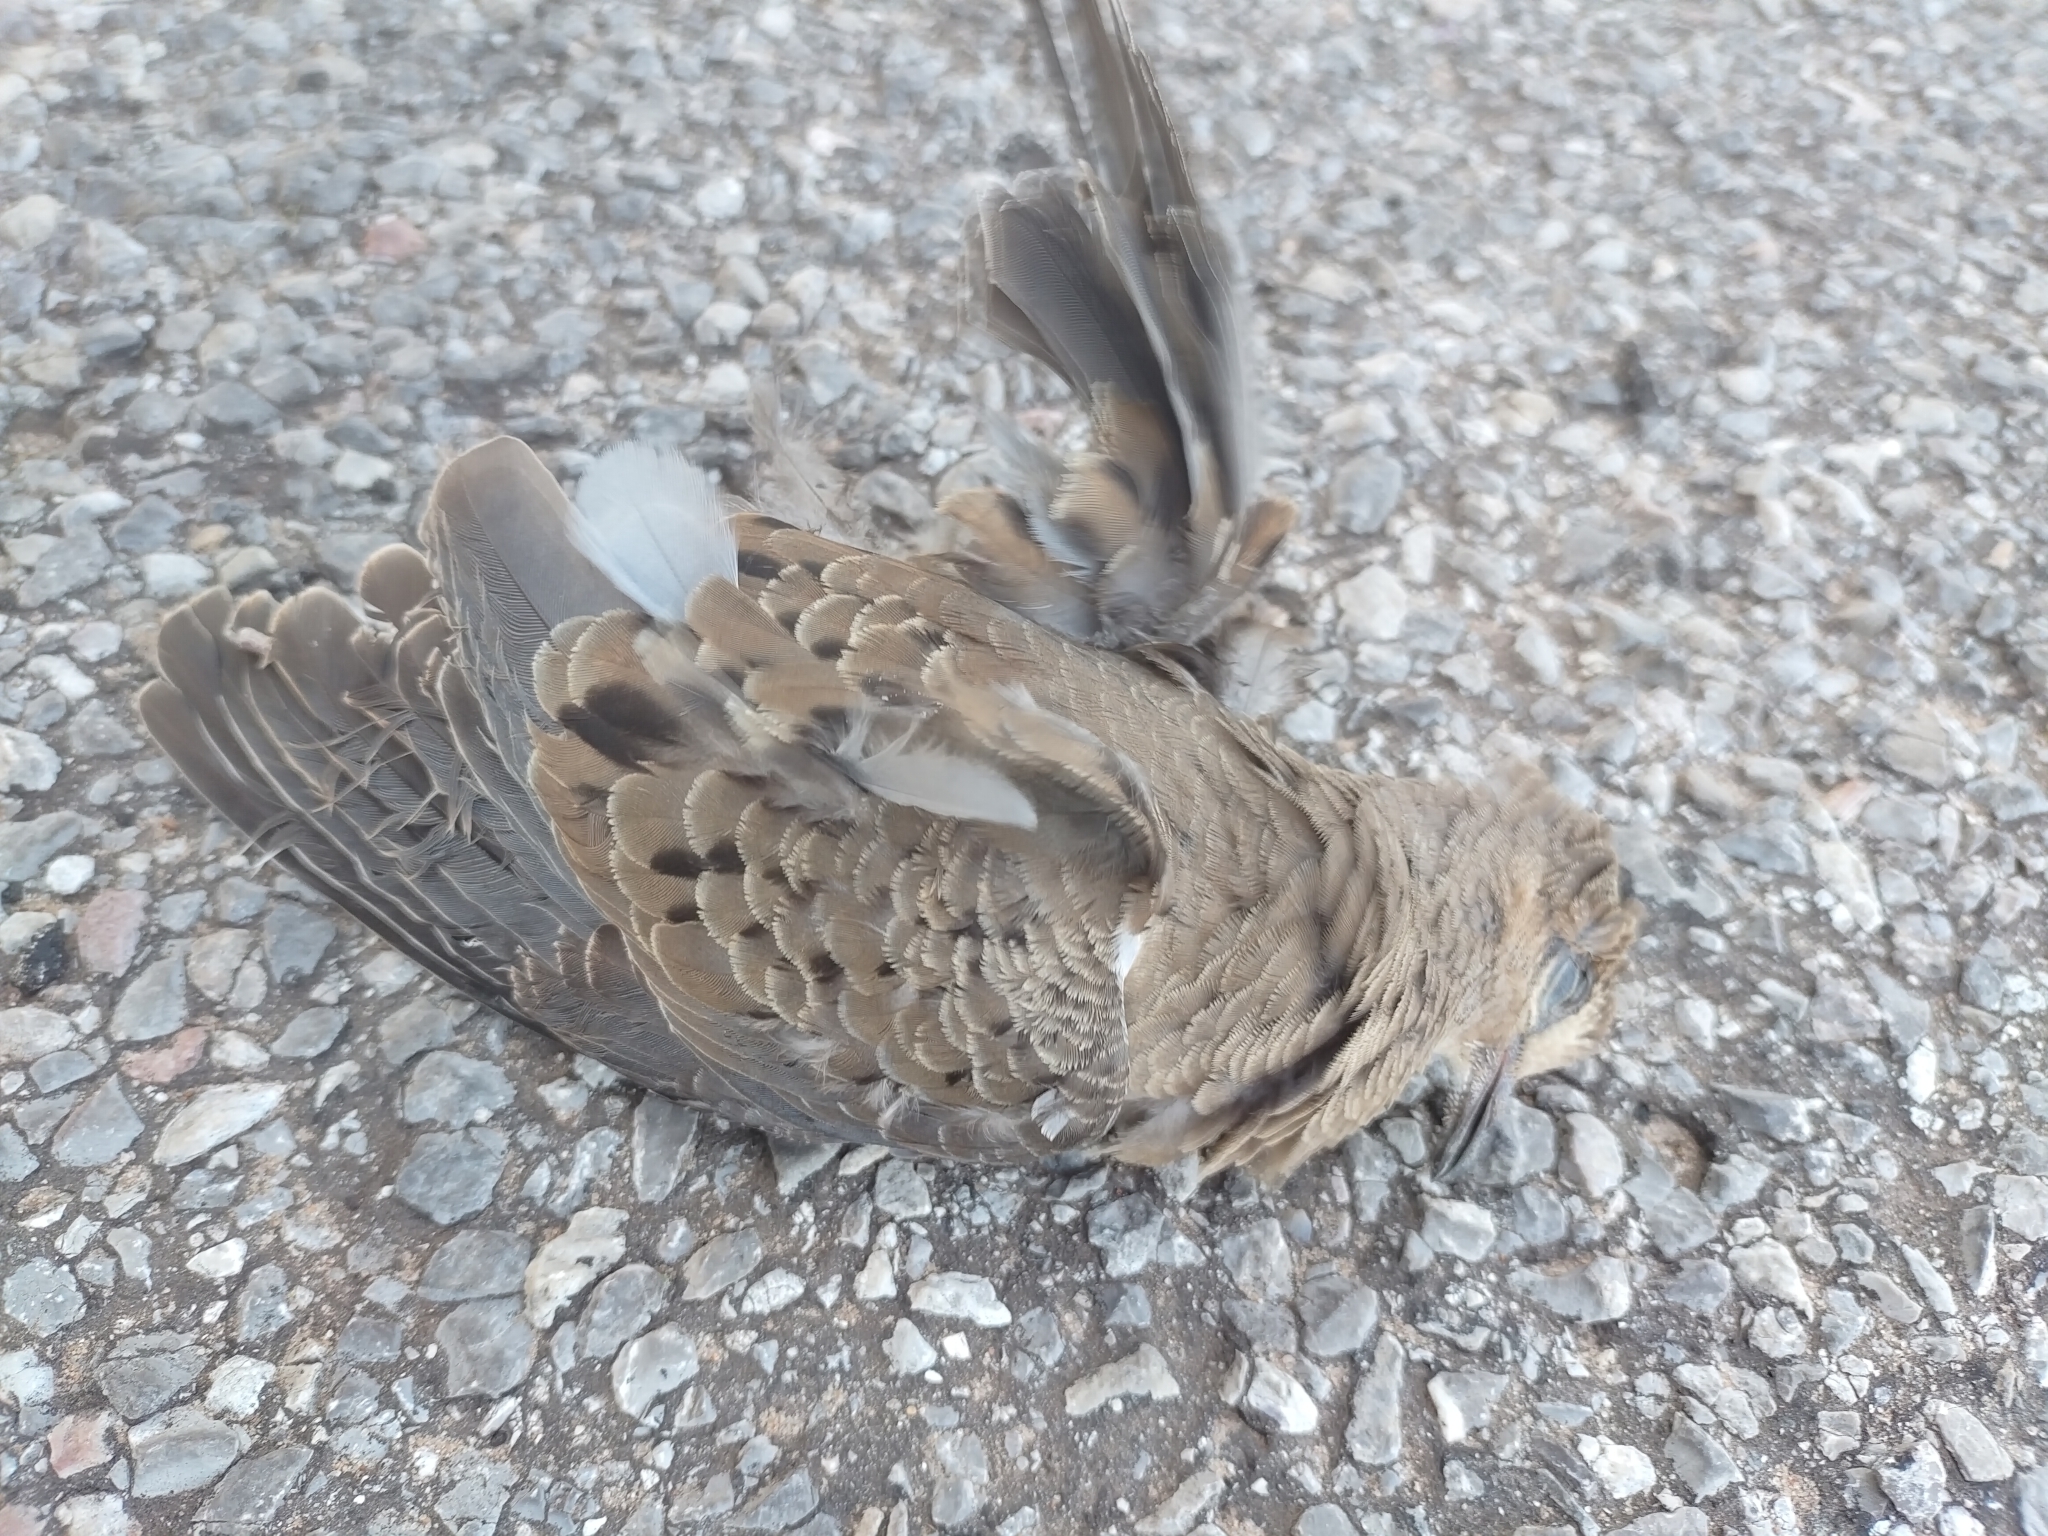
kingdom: Animalia
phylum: Chordata
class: Aves
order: Columbiformes
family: Columbidae
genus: Zenaida
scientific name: Zenaida macroura
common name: Mourning dove
